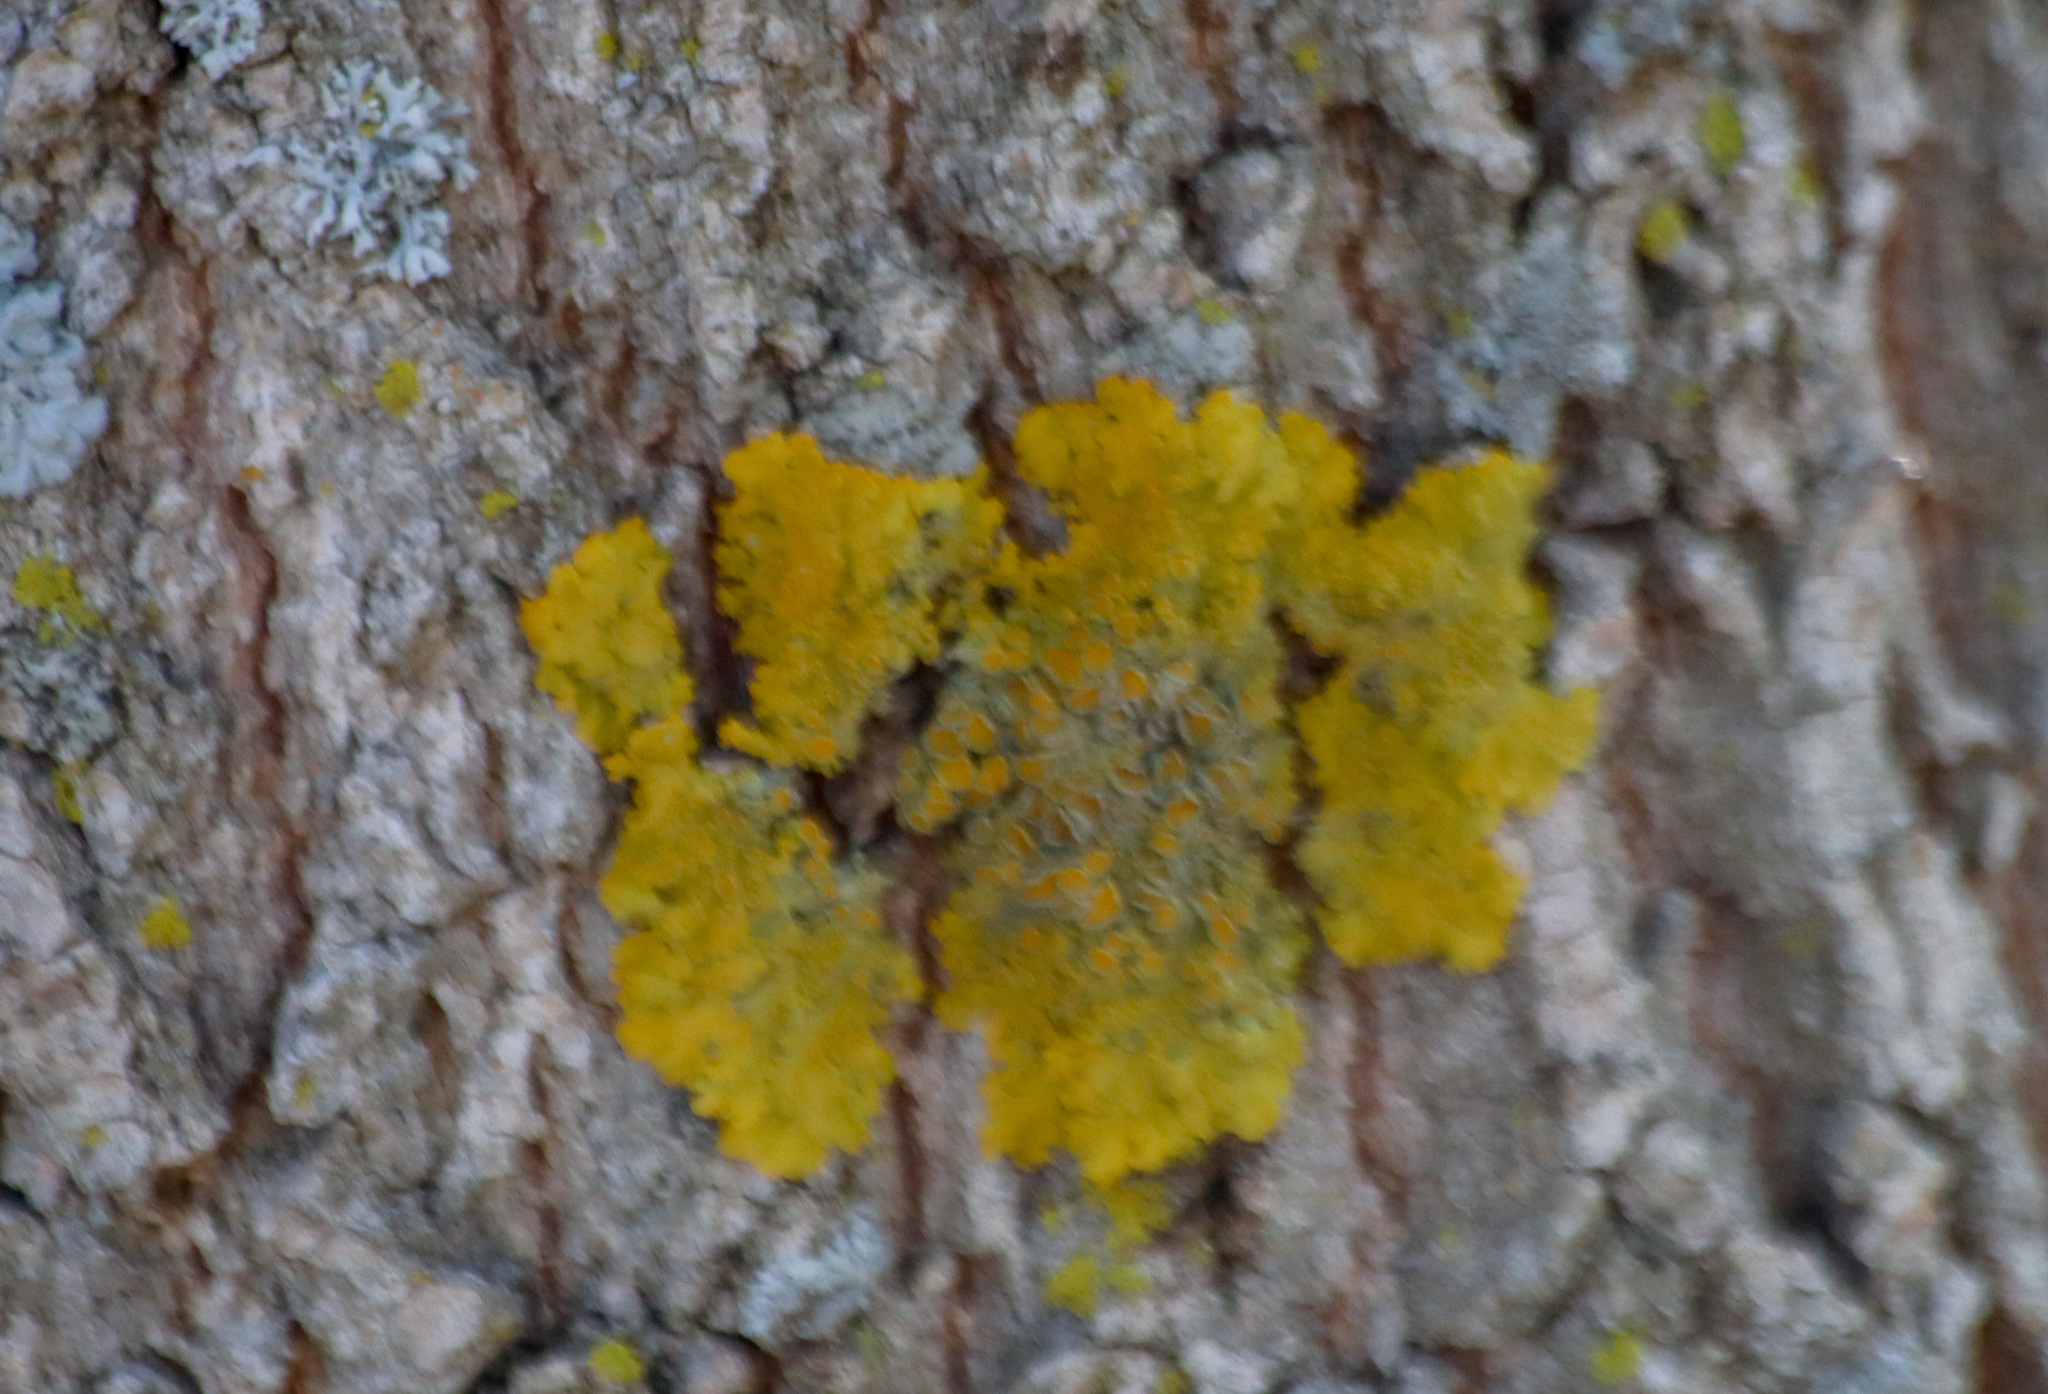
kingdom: Fungi
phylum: Ascomycota
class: Lecanoromycetes
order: Teloschistales
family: Teloschistaceae
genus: Xanthoria
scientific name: Xanthoria parietina
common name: Common orange lichen
